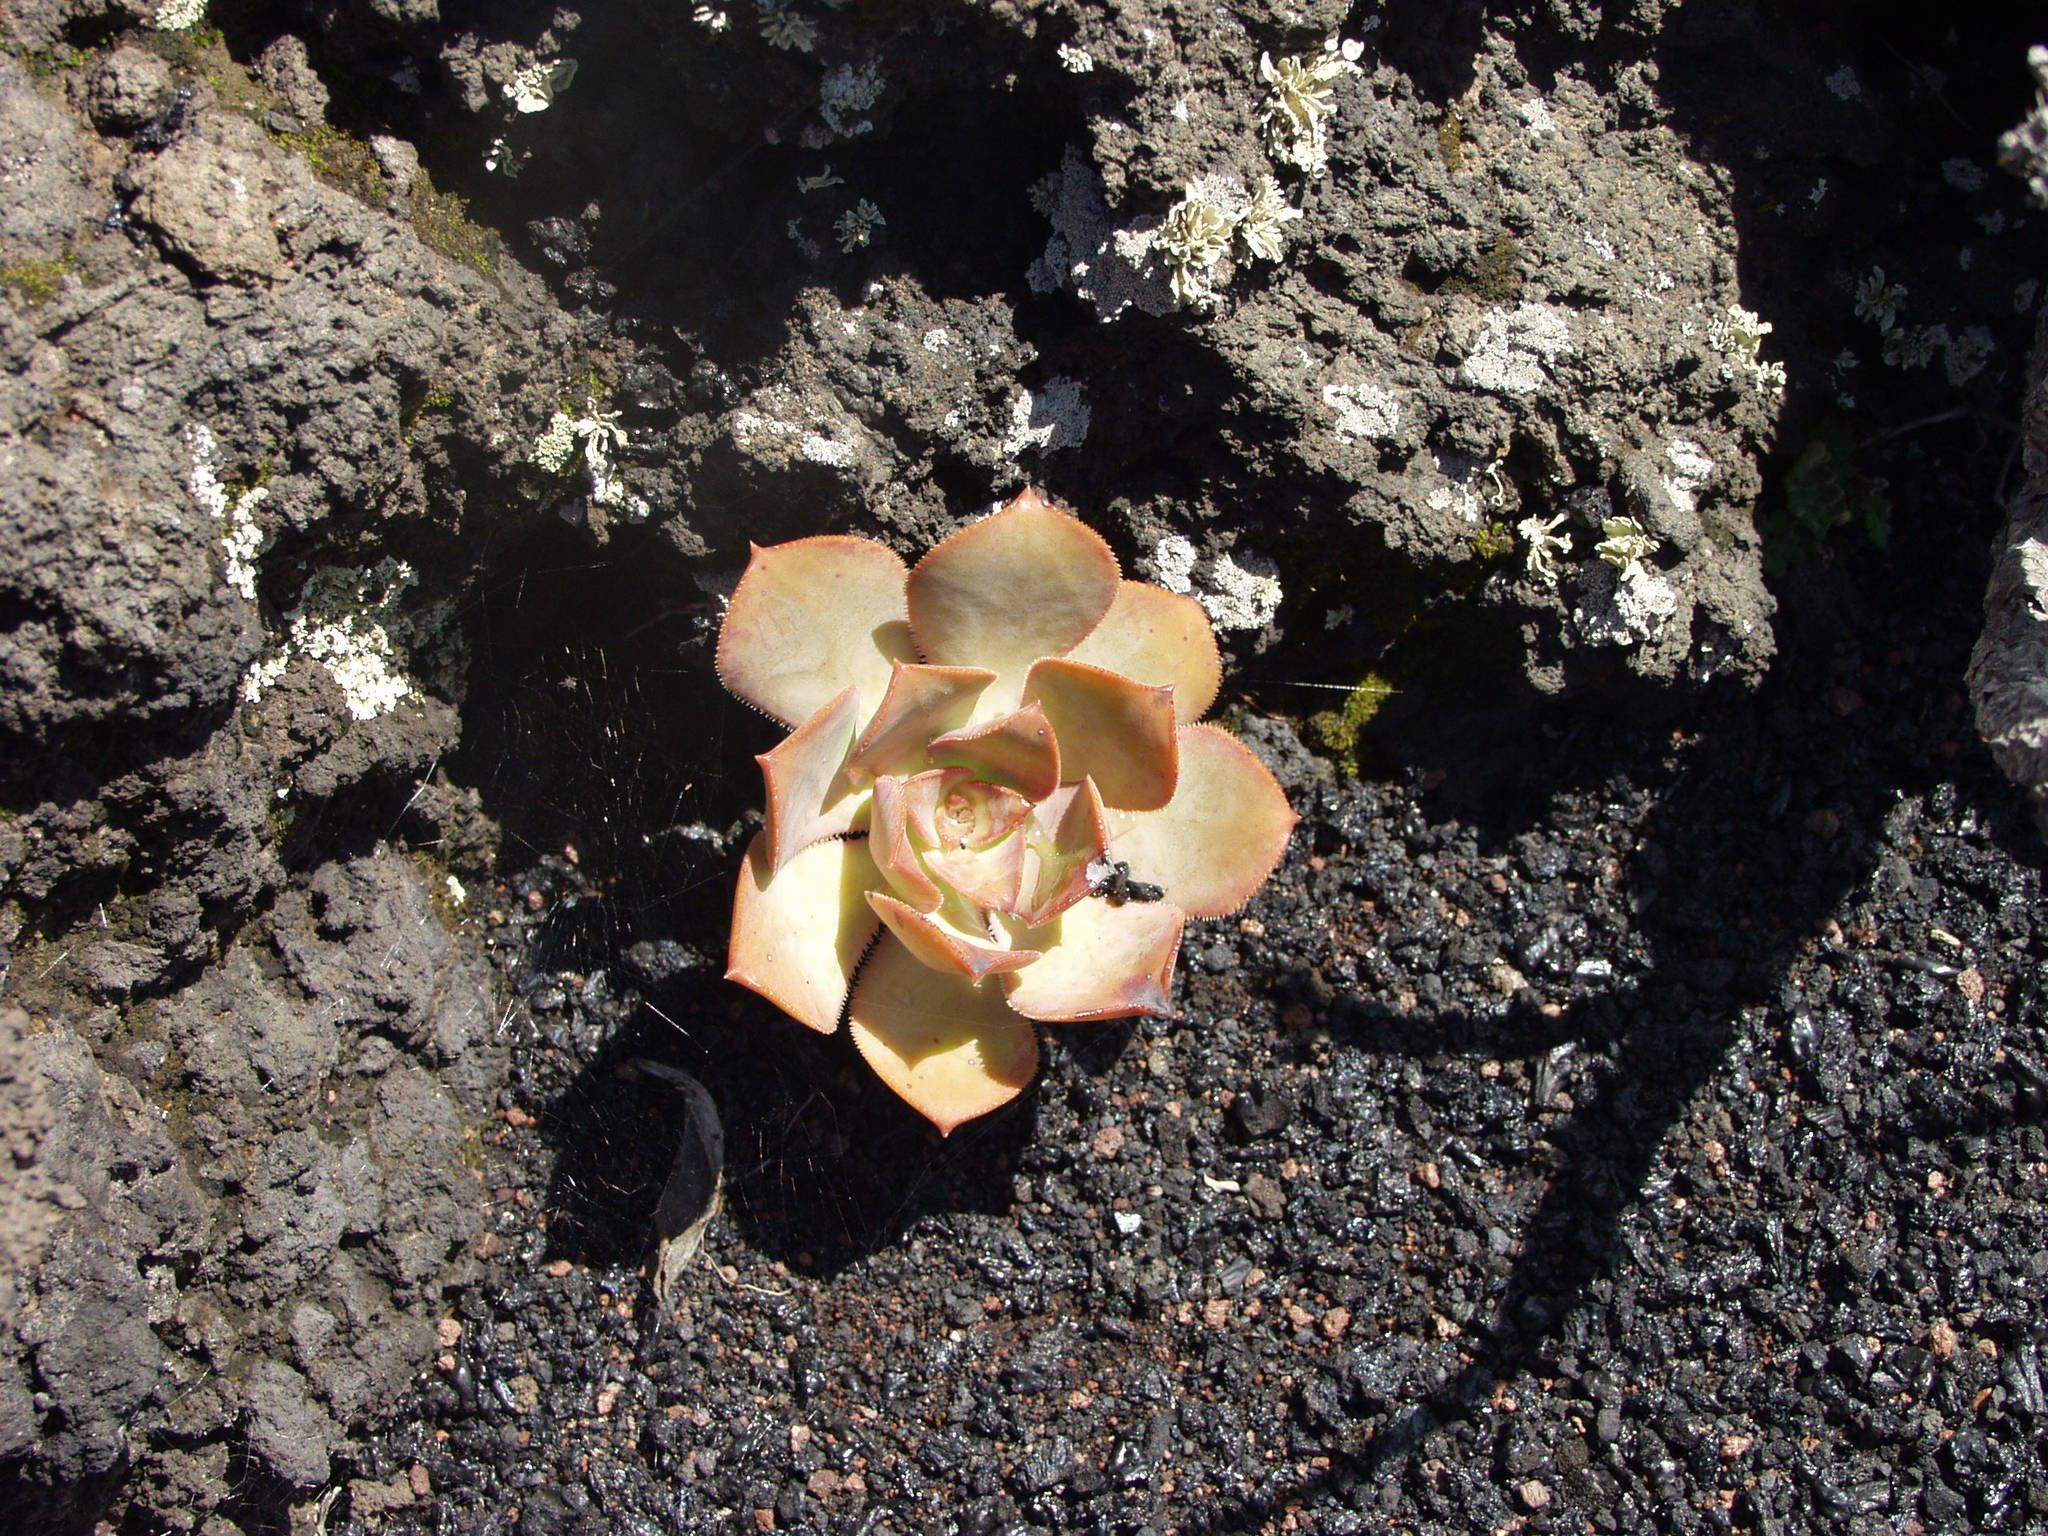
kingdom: Plantae
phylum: Tracheophyta
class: Magnoliopsida
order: Saxifragales
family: Crassulaceae
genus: Aeonium
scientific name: Aeonium davidbramwellii
